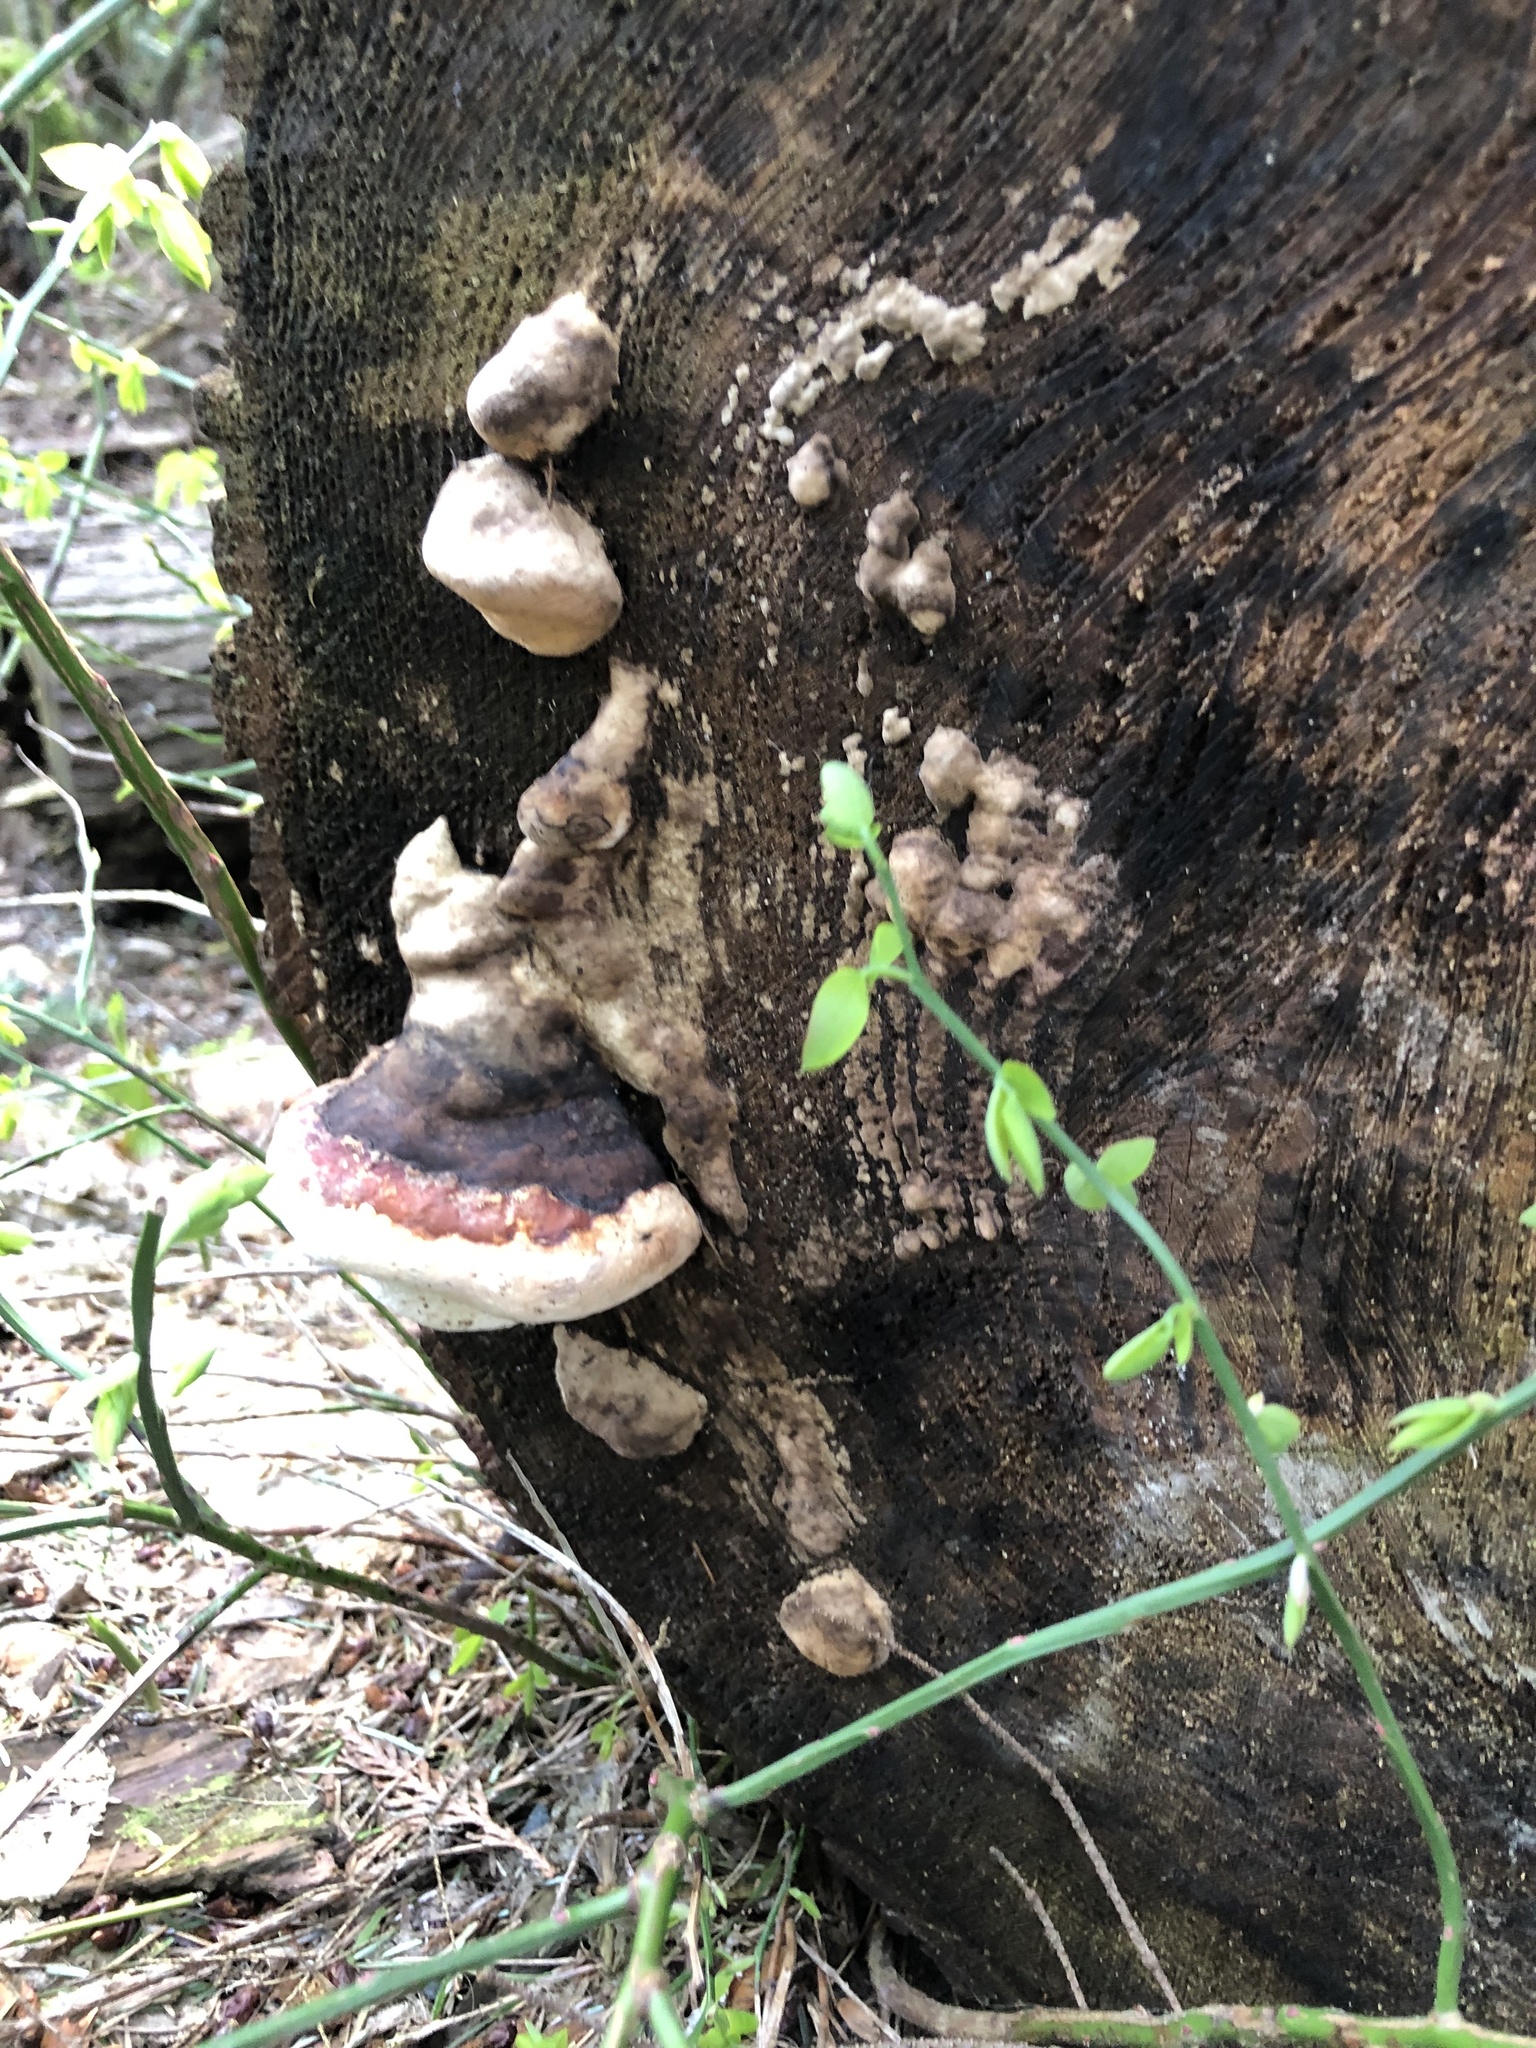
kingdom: Fungi
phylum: Basidiomycota
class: Agaricomycetes
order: Polyporales
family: Fomitopsidaceae
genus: Fomitopsis
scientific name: Fomitopsis mounceae
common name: Northern red belt
